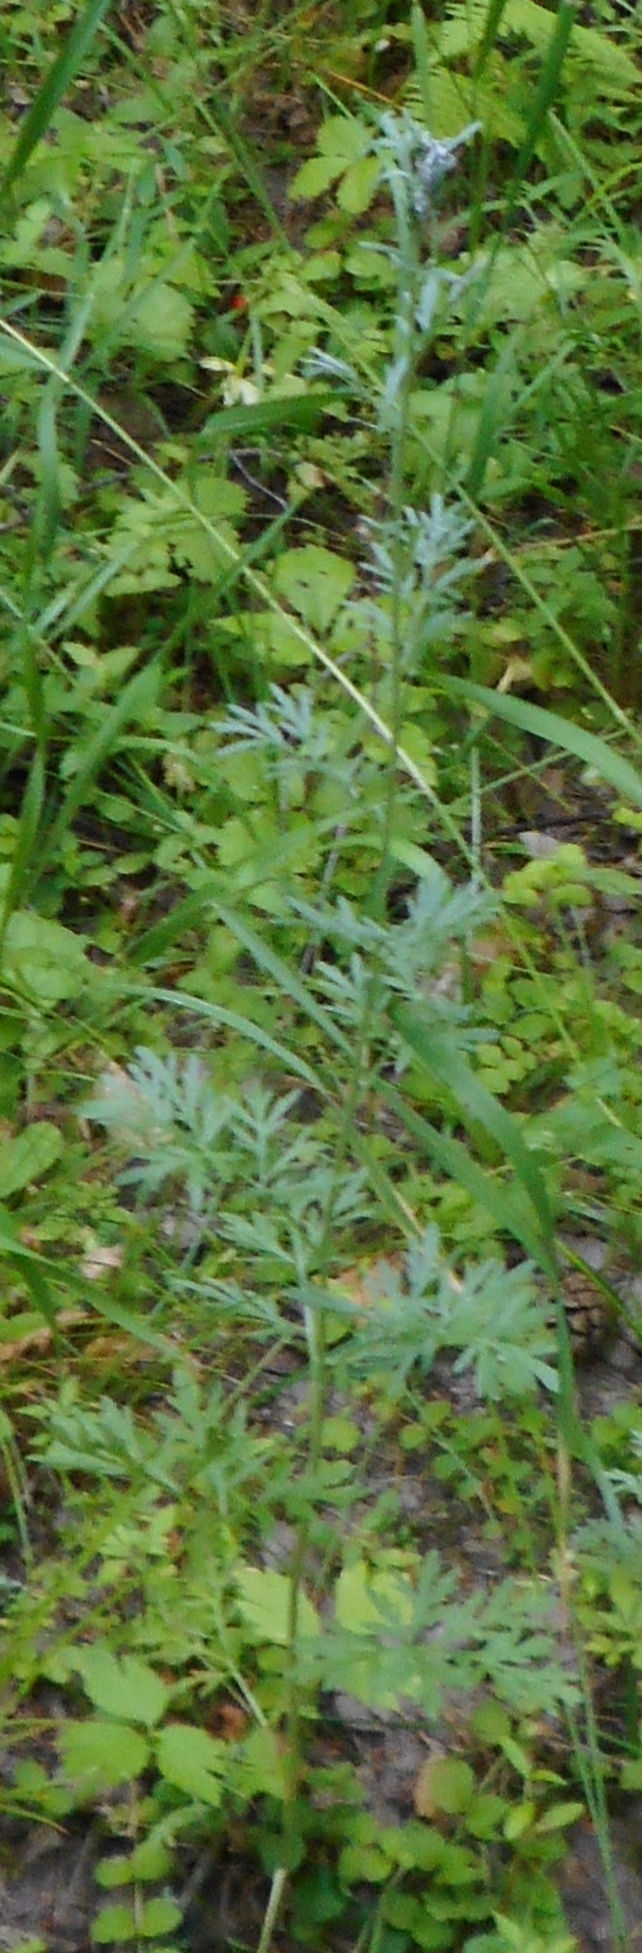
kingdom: Plantae
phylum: Tracheophyta
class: Magnoliopsida
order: Asterales
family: Asteraceae
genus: Artemisia
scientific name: Artemisia absinthium
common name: Wormwood
